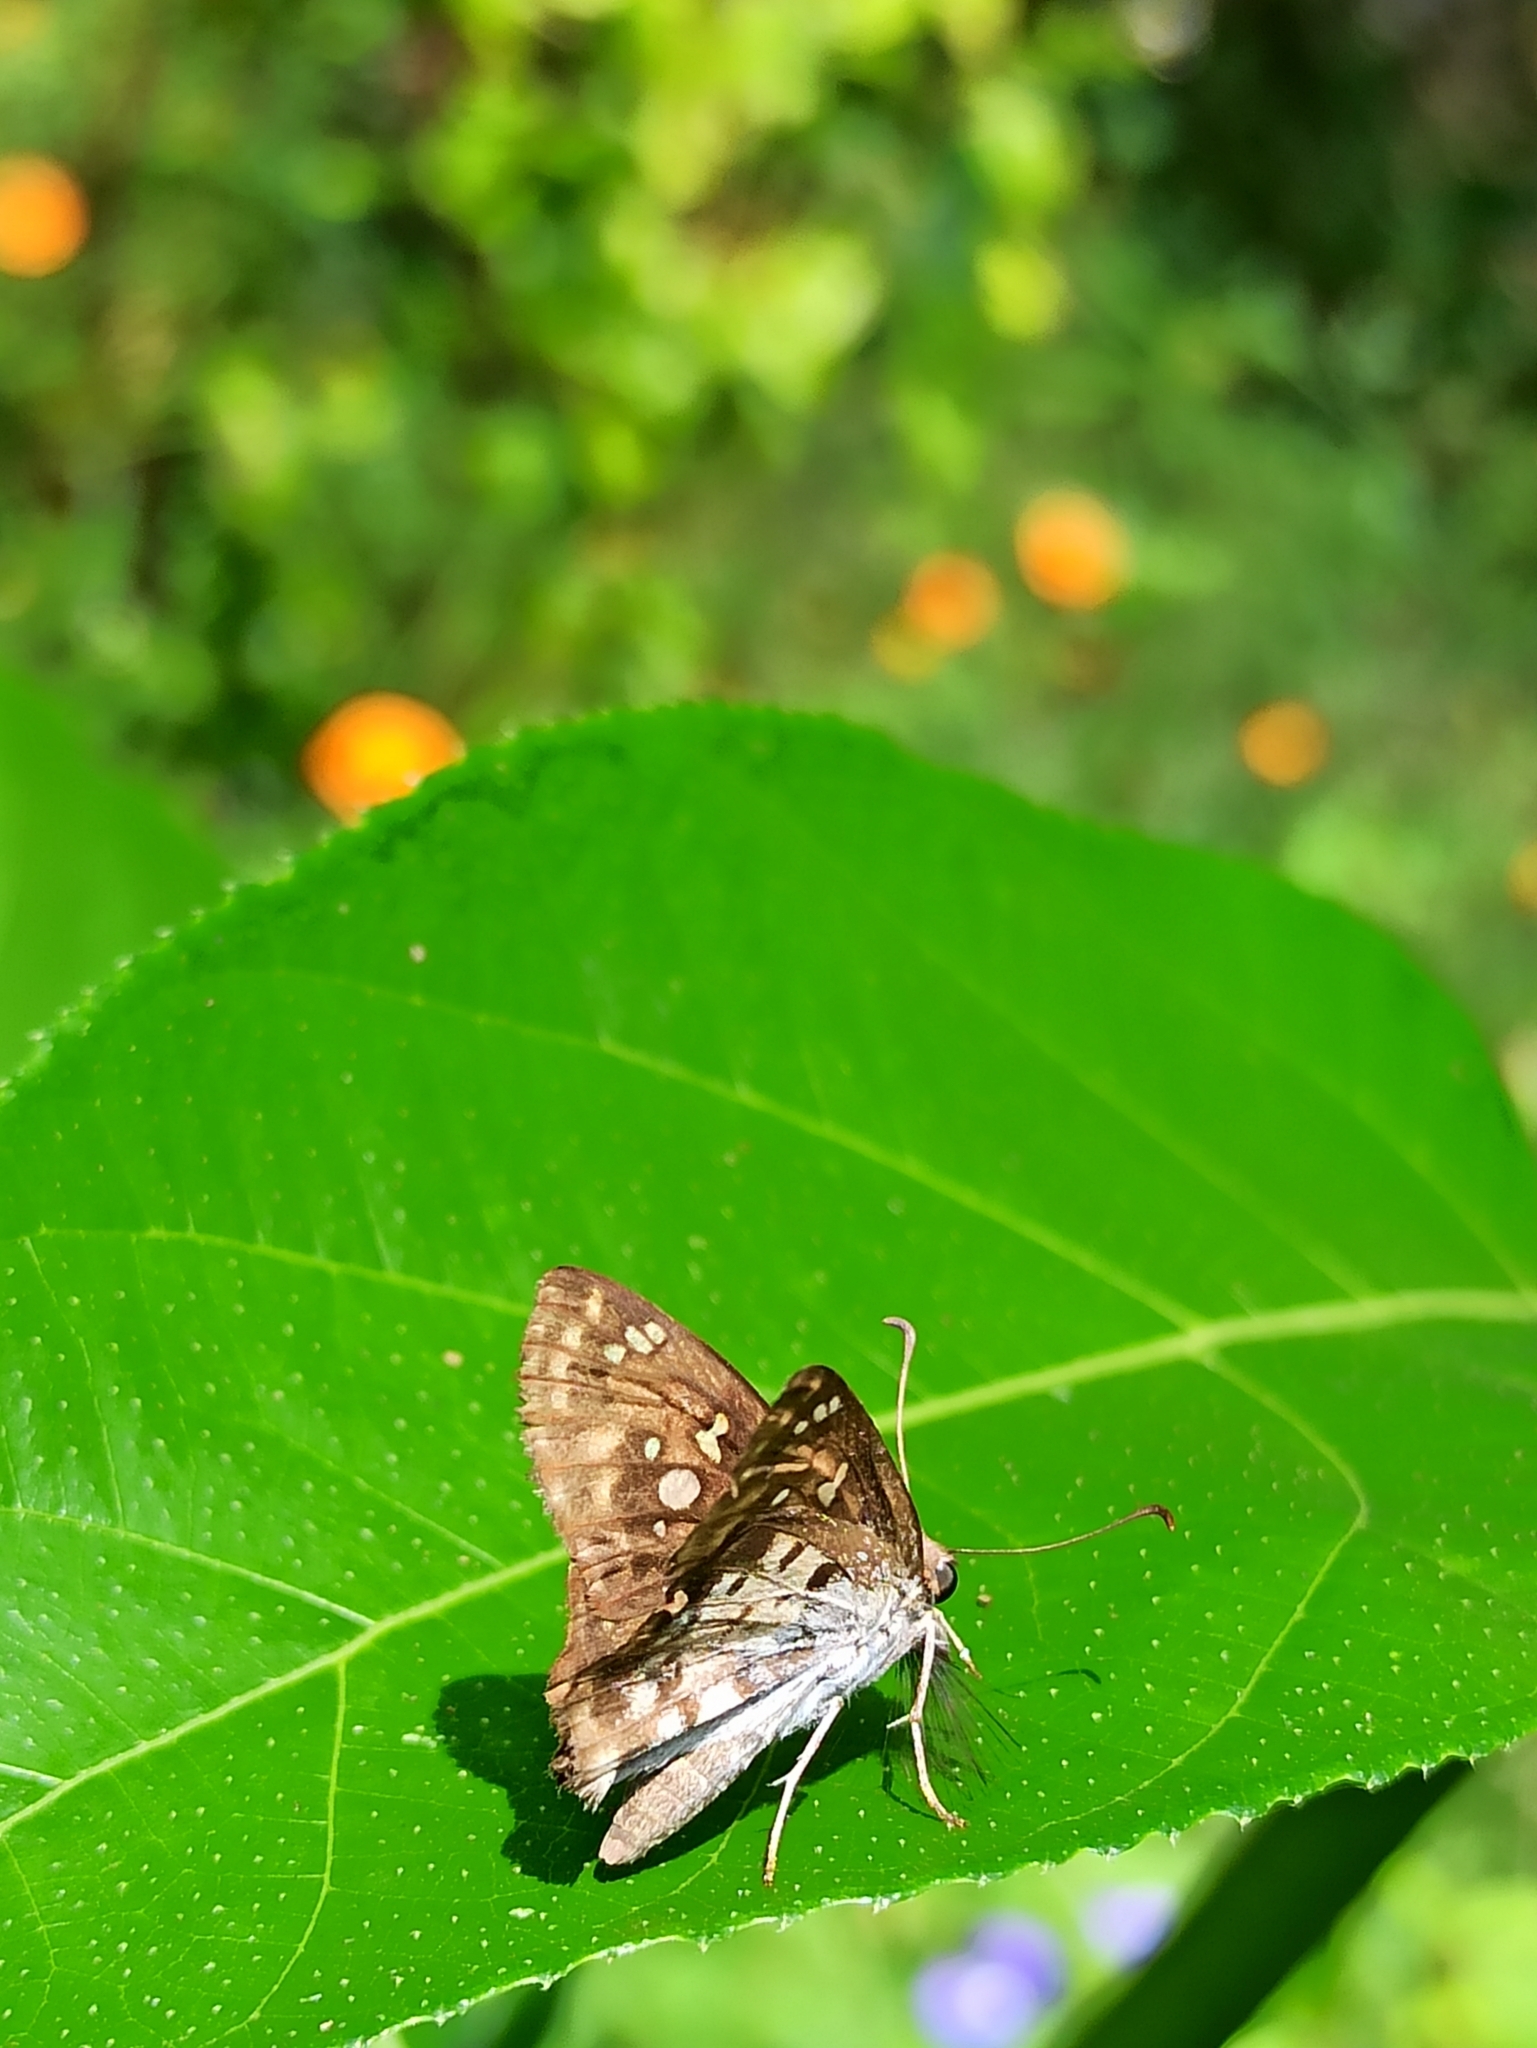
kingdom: Animalia
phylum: Arthropoda
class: Insecta
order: Lepidoptera
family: Hesperiidae
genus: Caprona
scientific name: Caprona ransonnettii
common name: Golden angle
